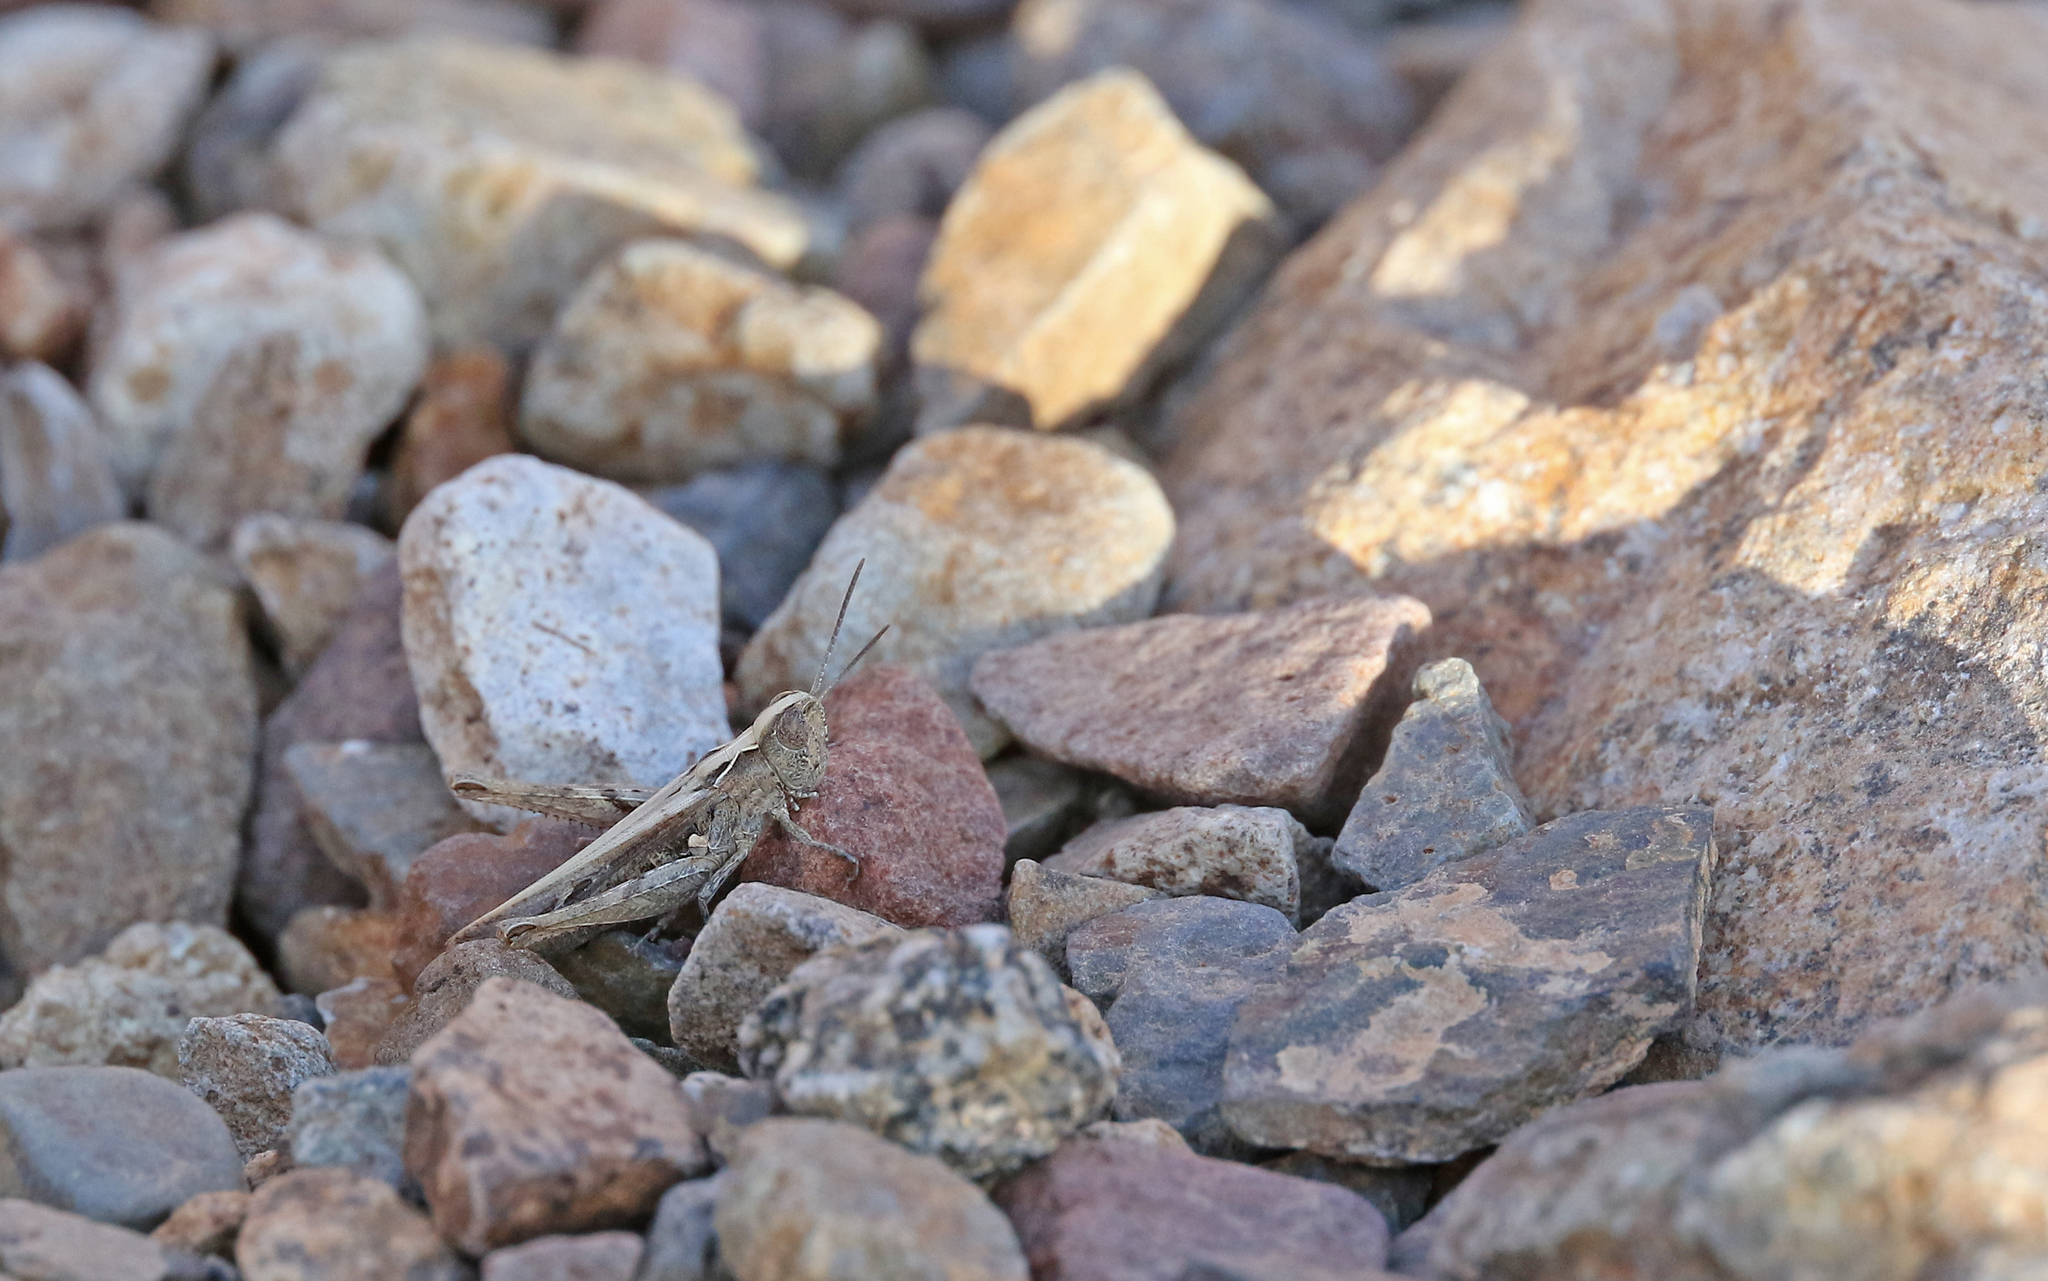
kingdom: Animalia
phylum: Arthropoda
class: Insecta
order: Orthoptera
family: Acrididae
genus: Omocestus
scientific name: Omocestus simonyi
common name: Purpurarian grasshopper
